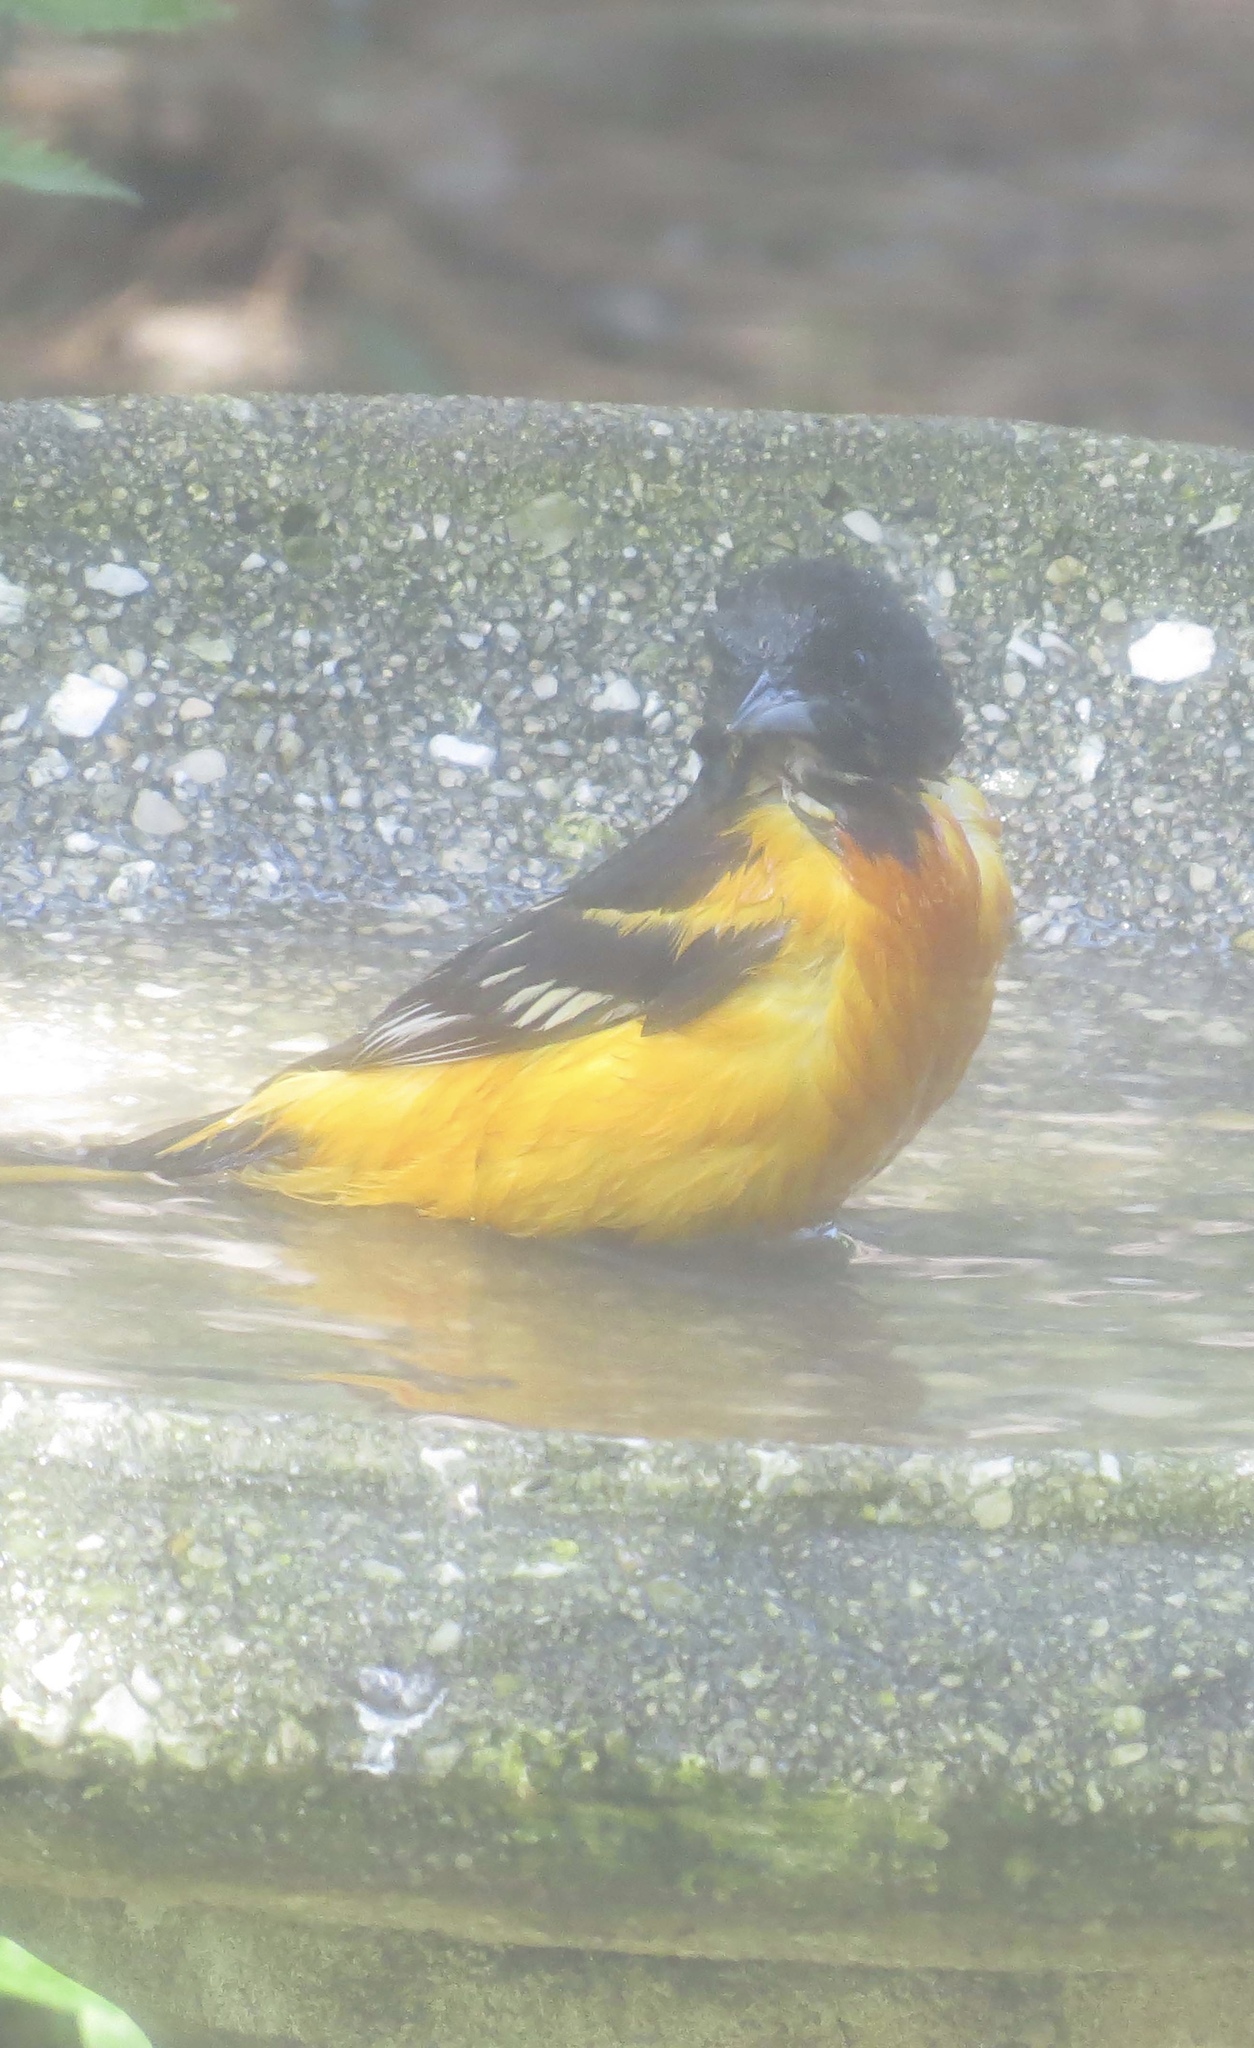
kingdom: Animalia
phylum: Chordata
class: Aves
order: Passeriformes
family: Icteridae
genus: Icterus
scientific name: Icterus galbula
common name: Baltimore oriole
